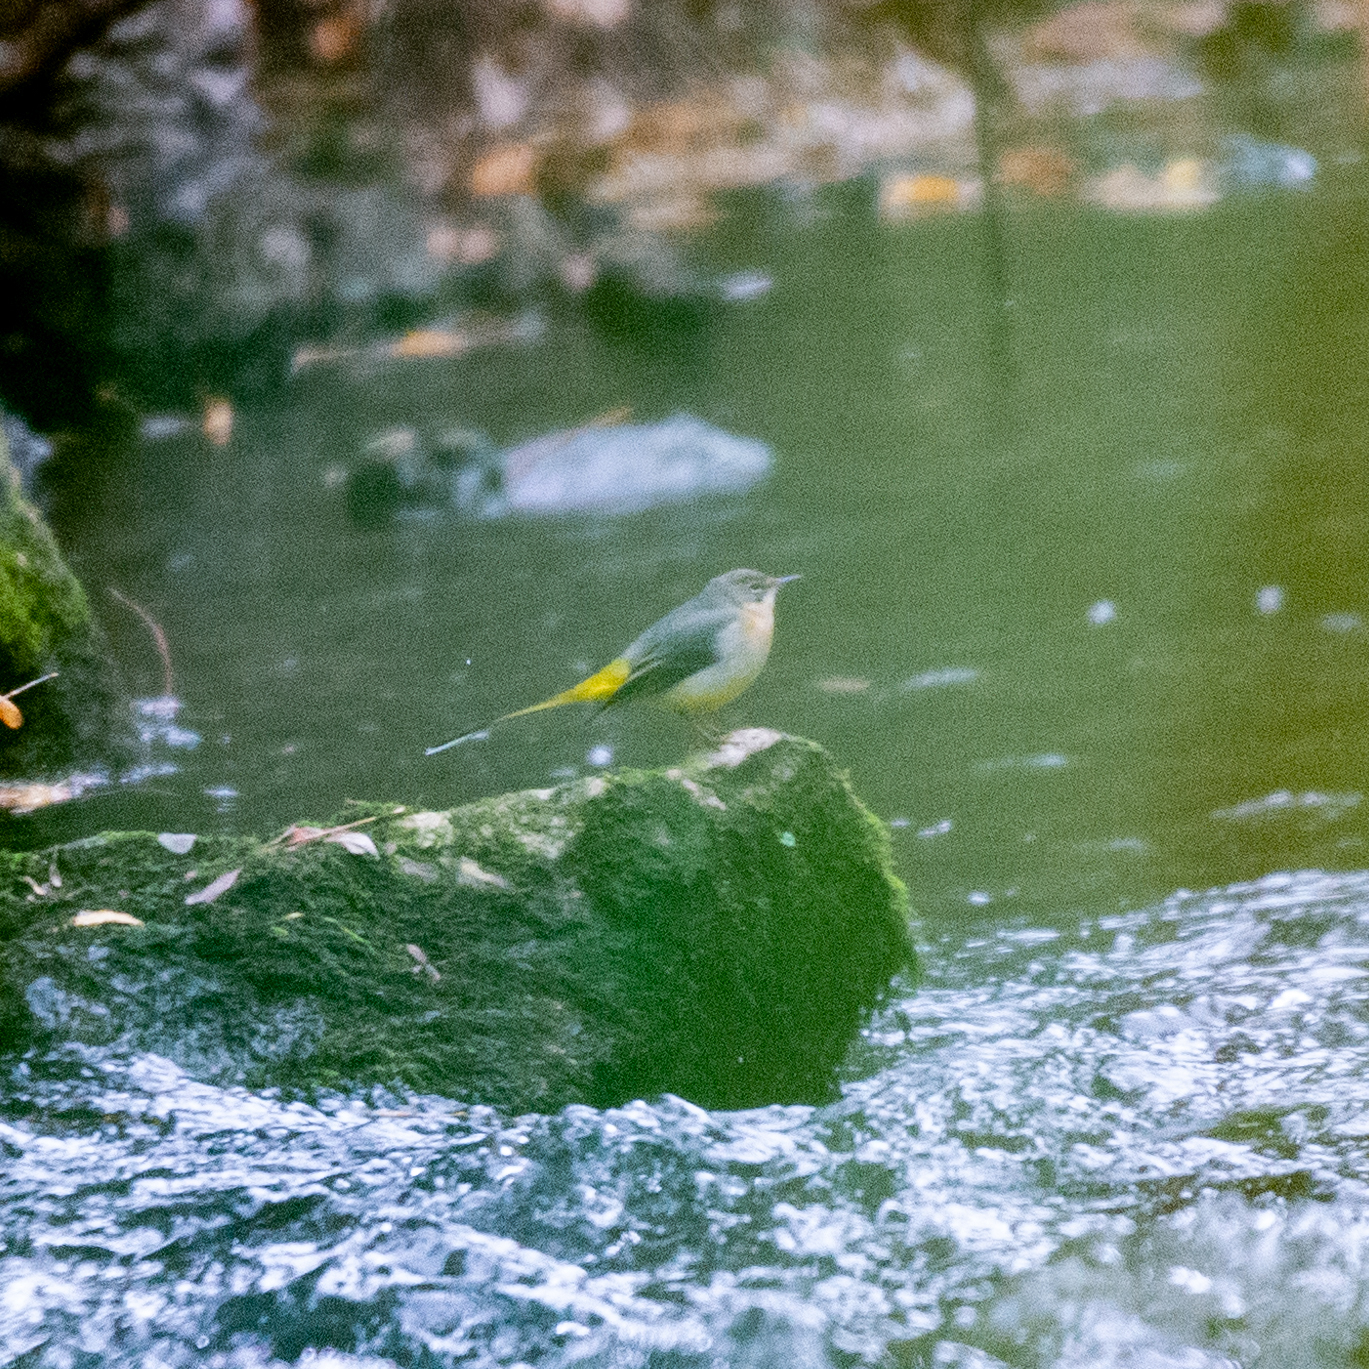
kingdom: Animalia
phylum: Chordata
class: Aves
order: Passeriformes
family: Motacillidae
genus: Motacilla
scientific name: Motacilla cinerea
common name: Grey wagtail
